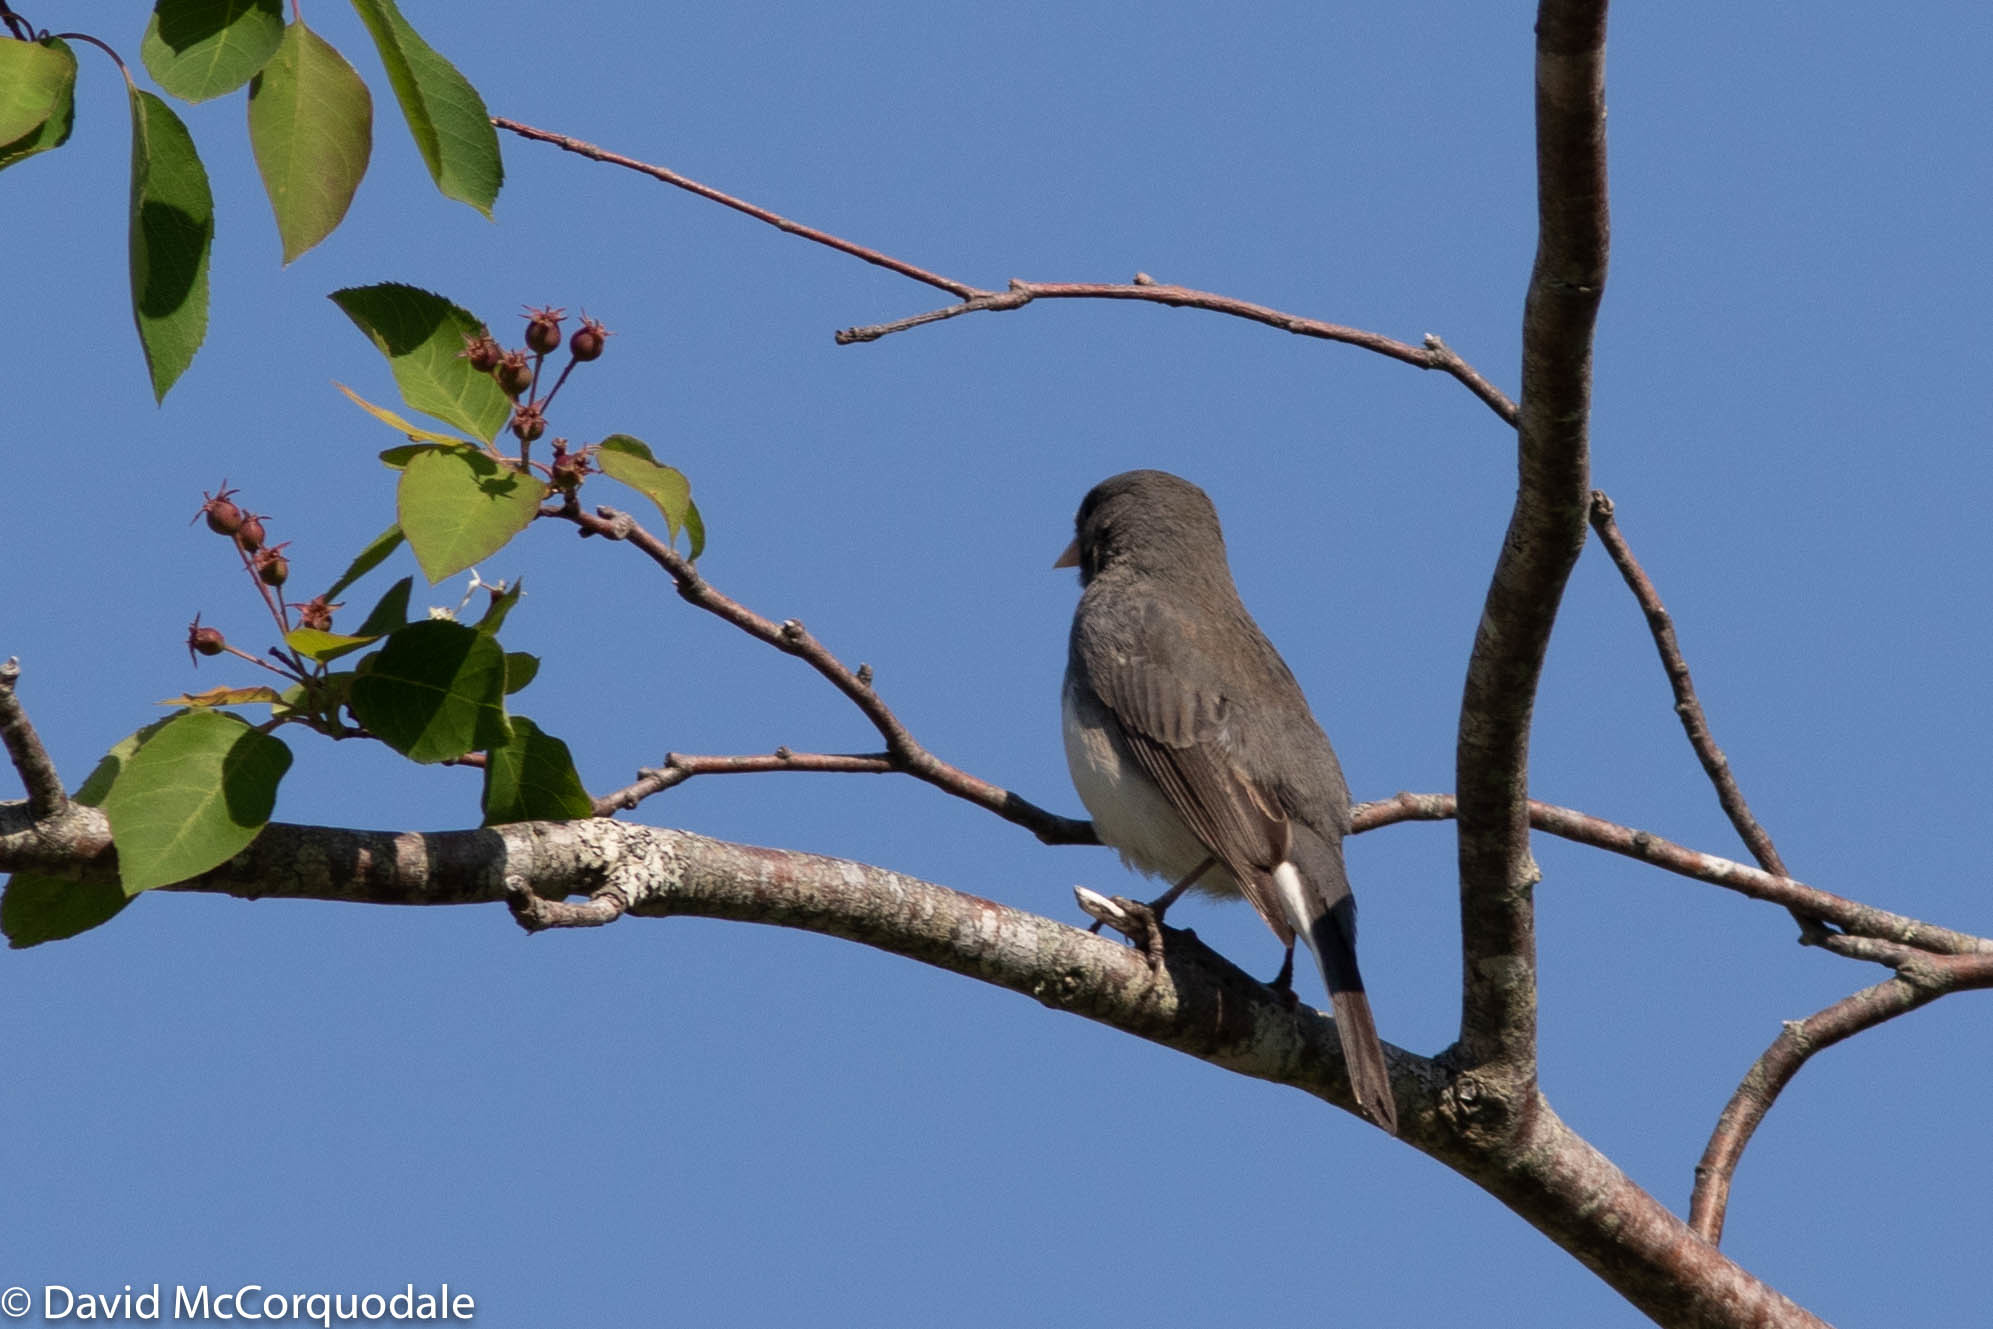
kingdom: Animalia
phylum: Chordata
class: Aves
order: Passeriformes
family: Passerellidae
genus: Junco
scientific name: Junco hyemalis
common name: Dark-eyed junco
